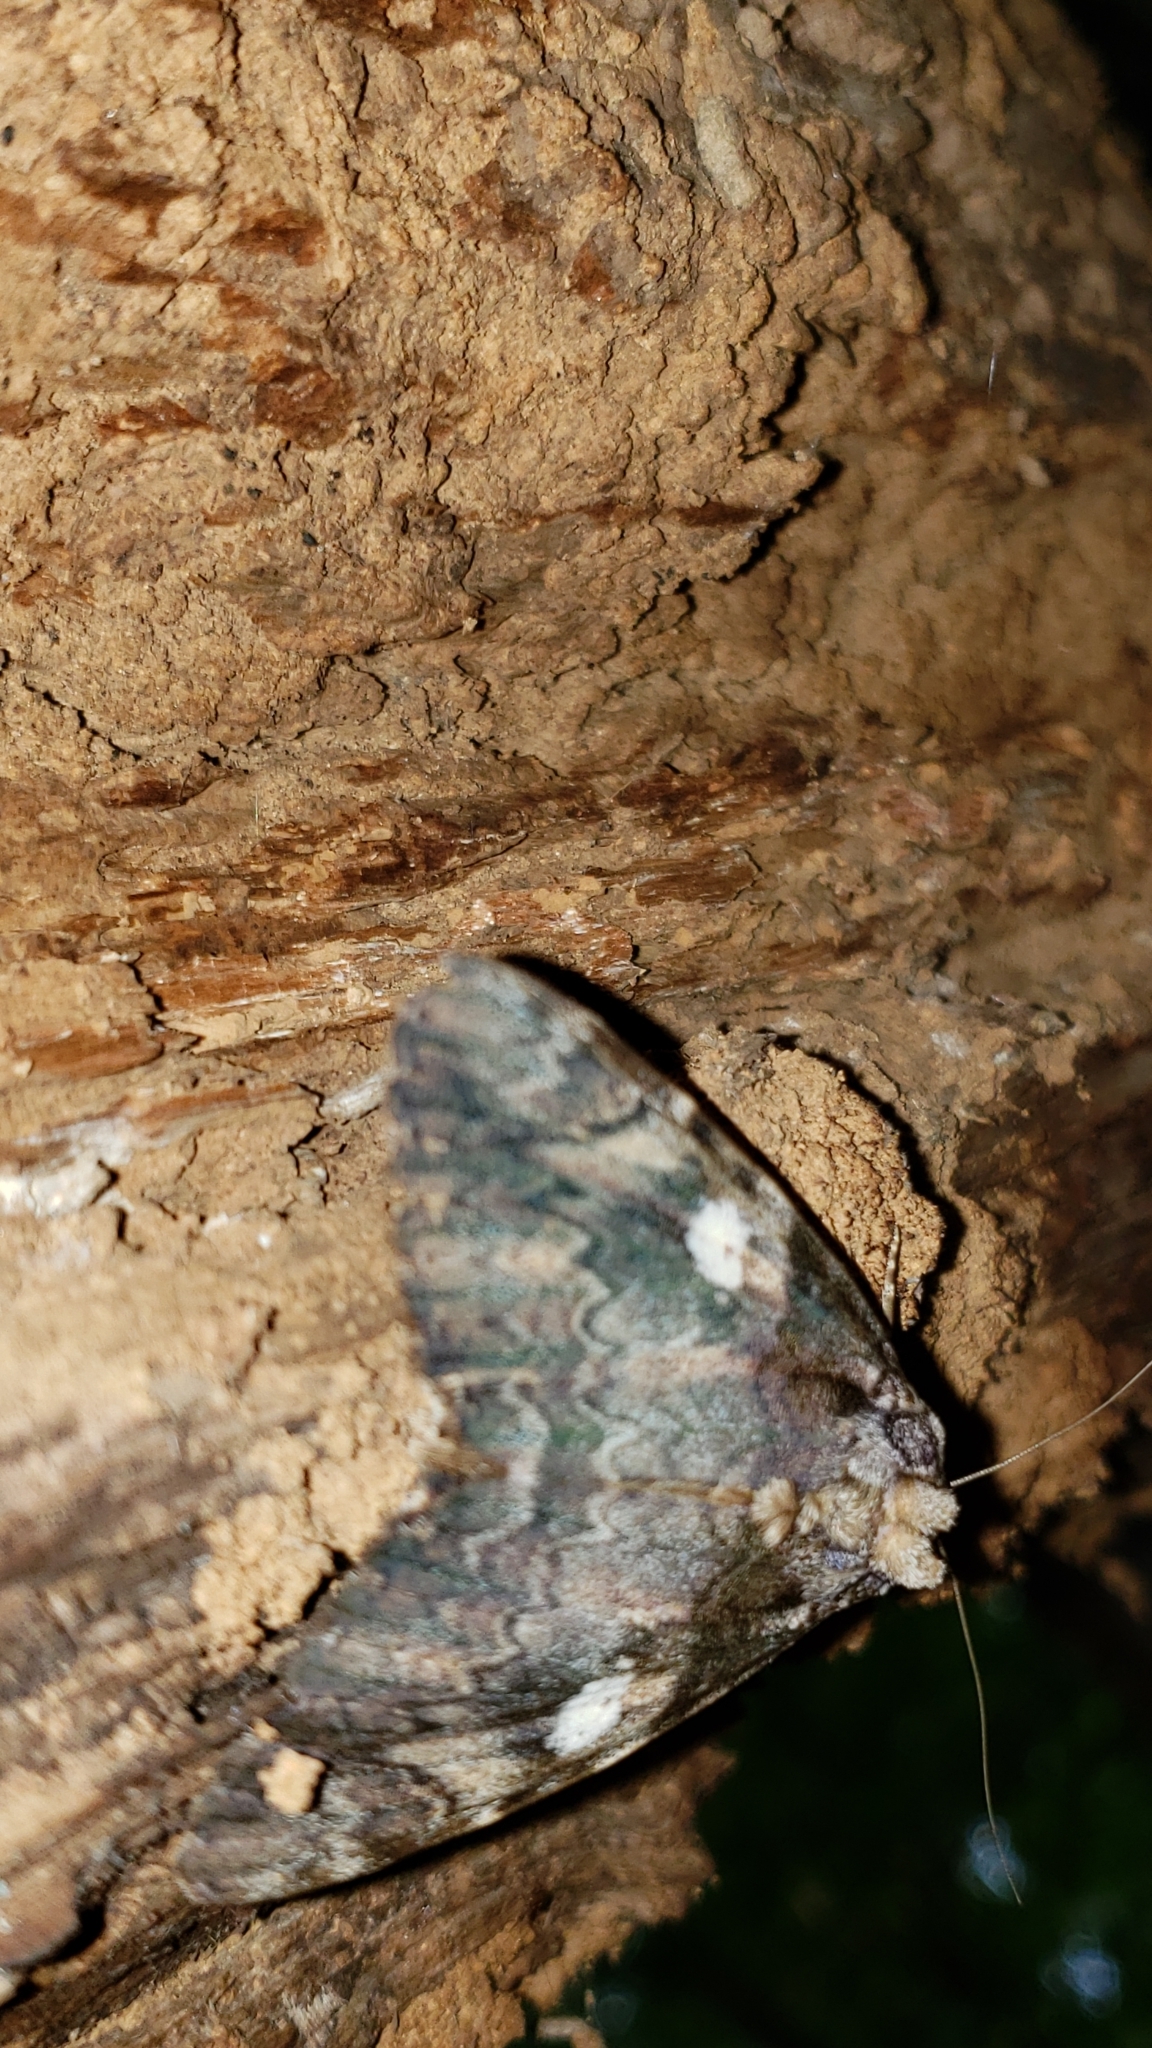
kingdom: Animalia
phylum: Arthropoda
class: Insecta
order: Lepidoptera
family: Erebidae
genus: Catocala
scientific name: Catocala ilia
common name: Ilia underwing
